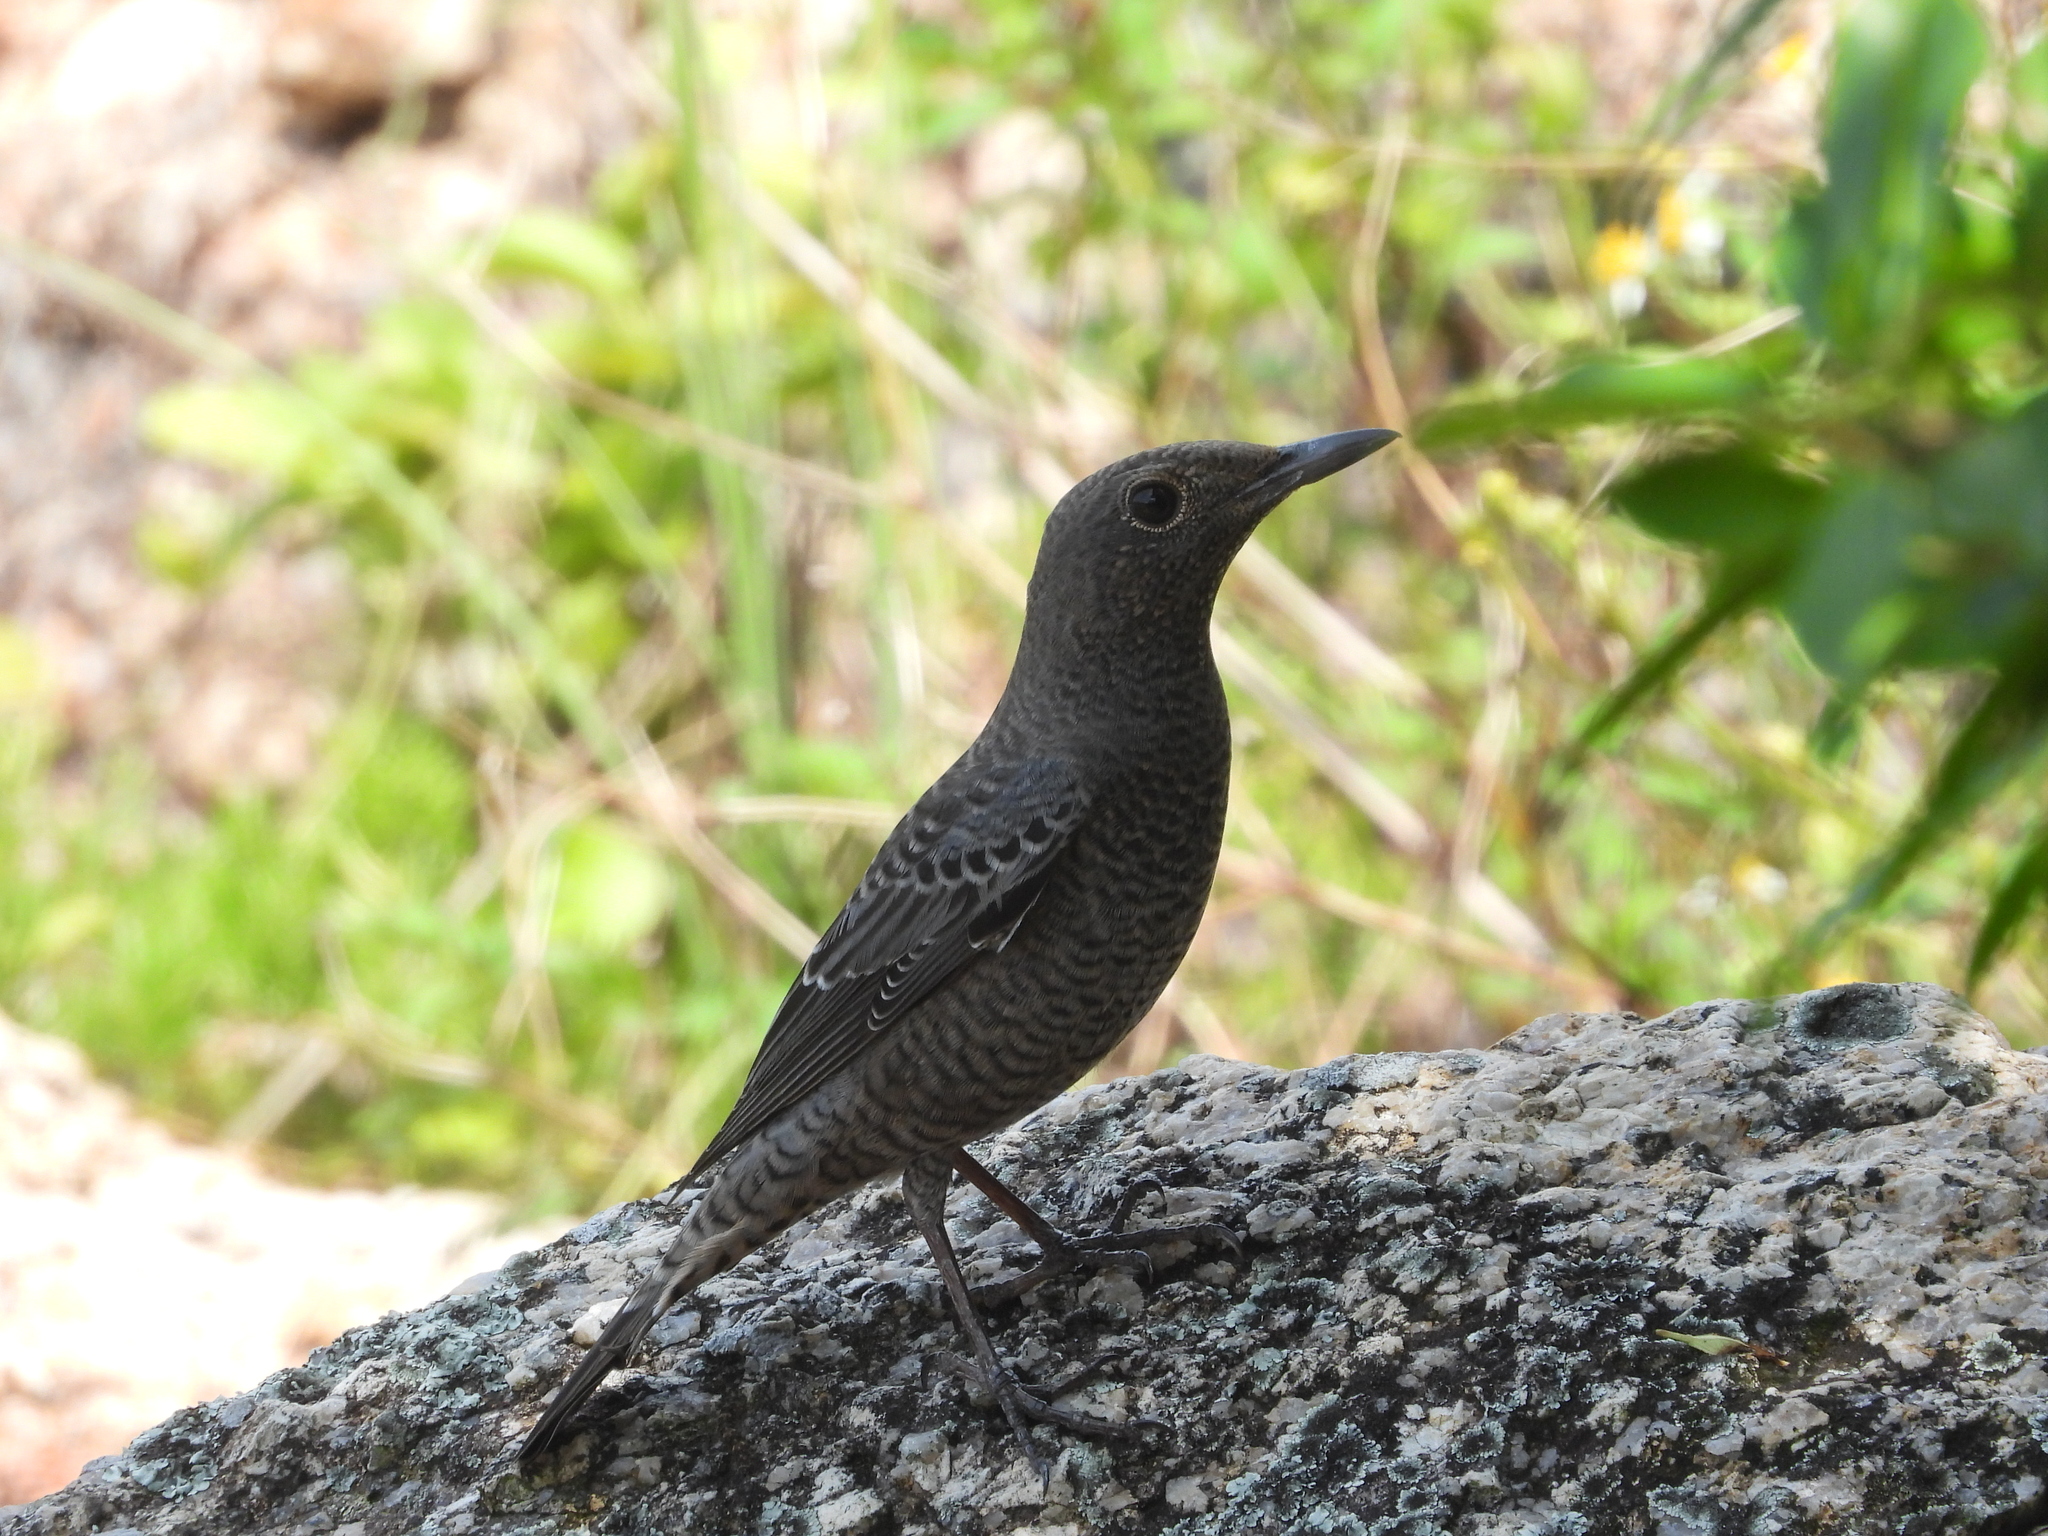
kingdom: Animalia
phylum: Chordata
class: Aves
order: Passeriformes
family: Muscicapidae
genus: Monticola
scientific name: Monticola solitarius
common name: Blue rock thrush
